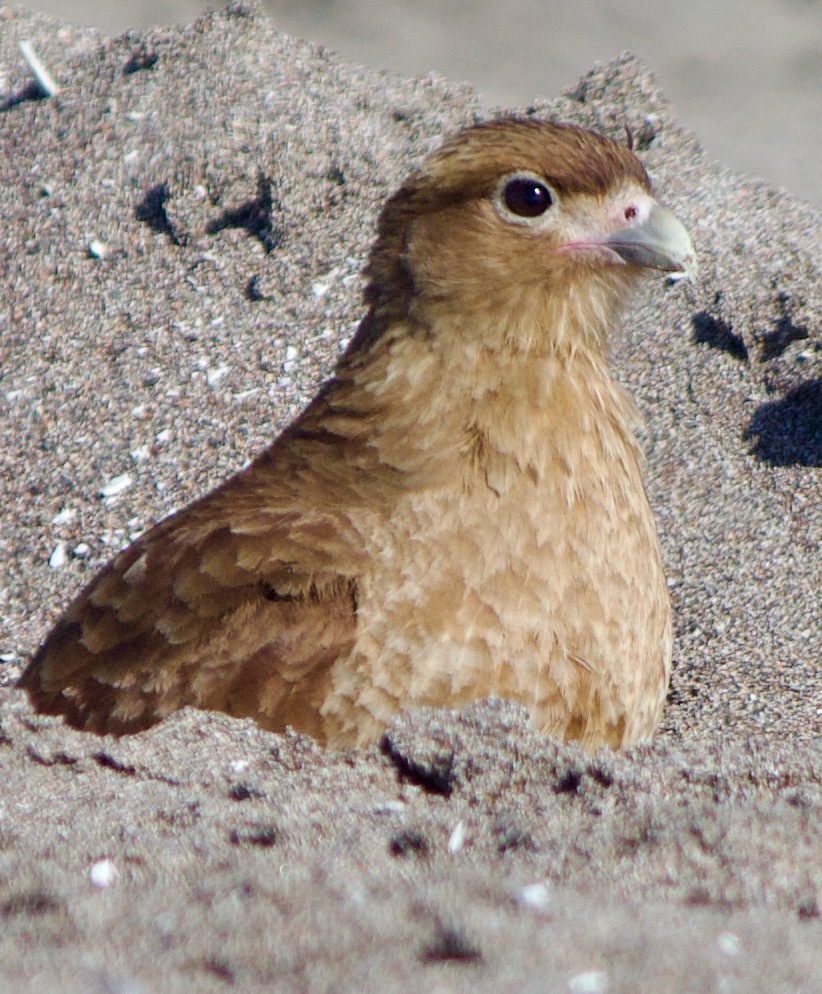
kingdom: Animalia
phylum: Chordata
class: Aves
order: Falconiformes
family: Falconidae
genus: Daptrius
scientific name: Daptrius
